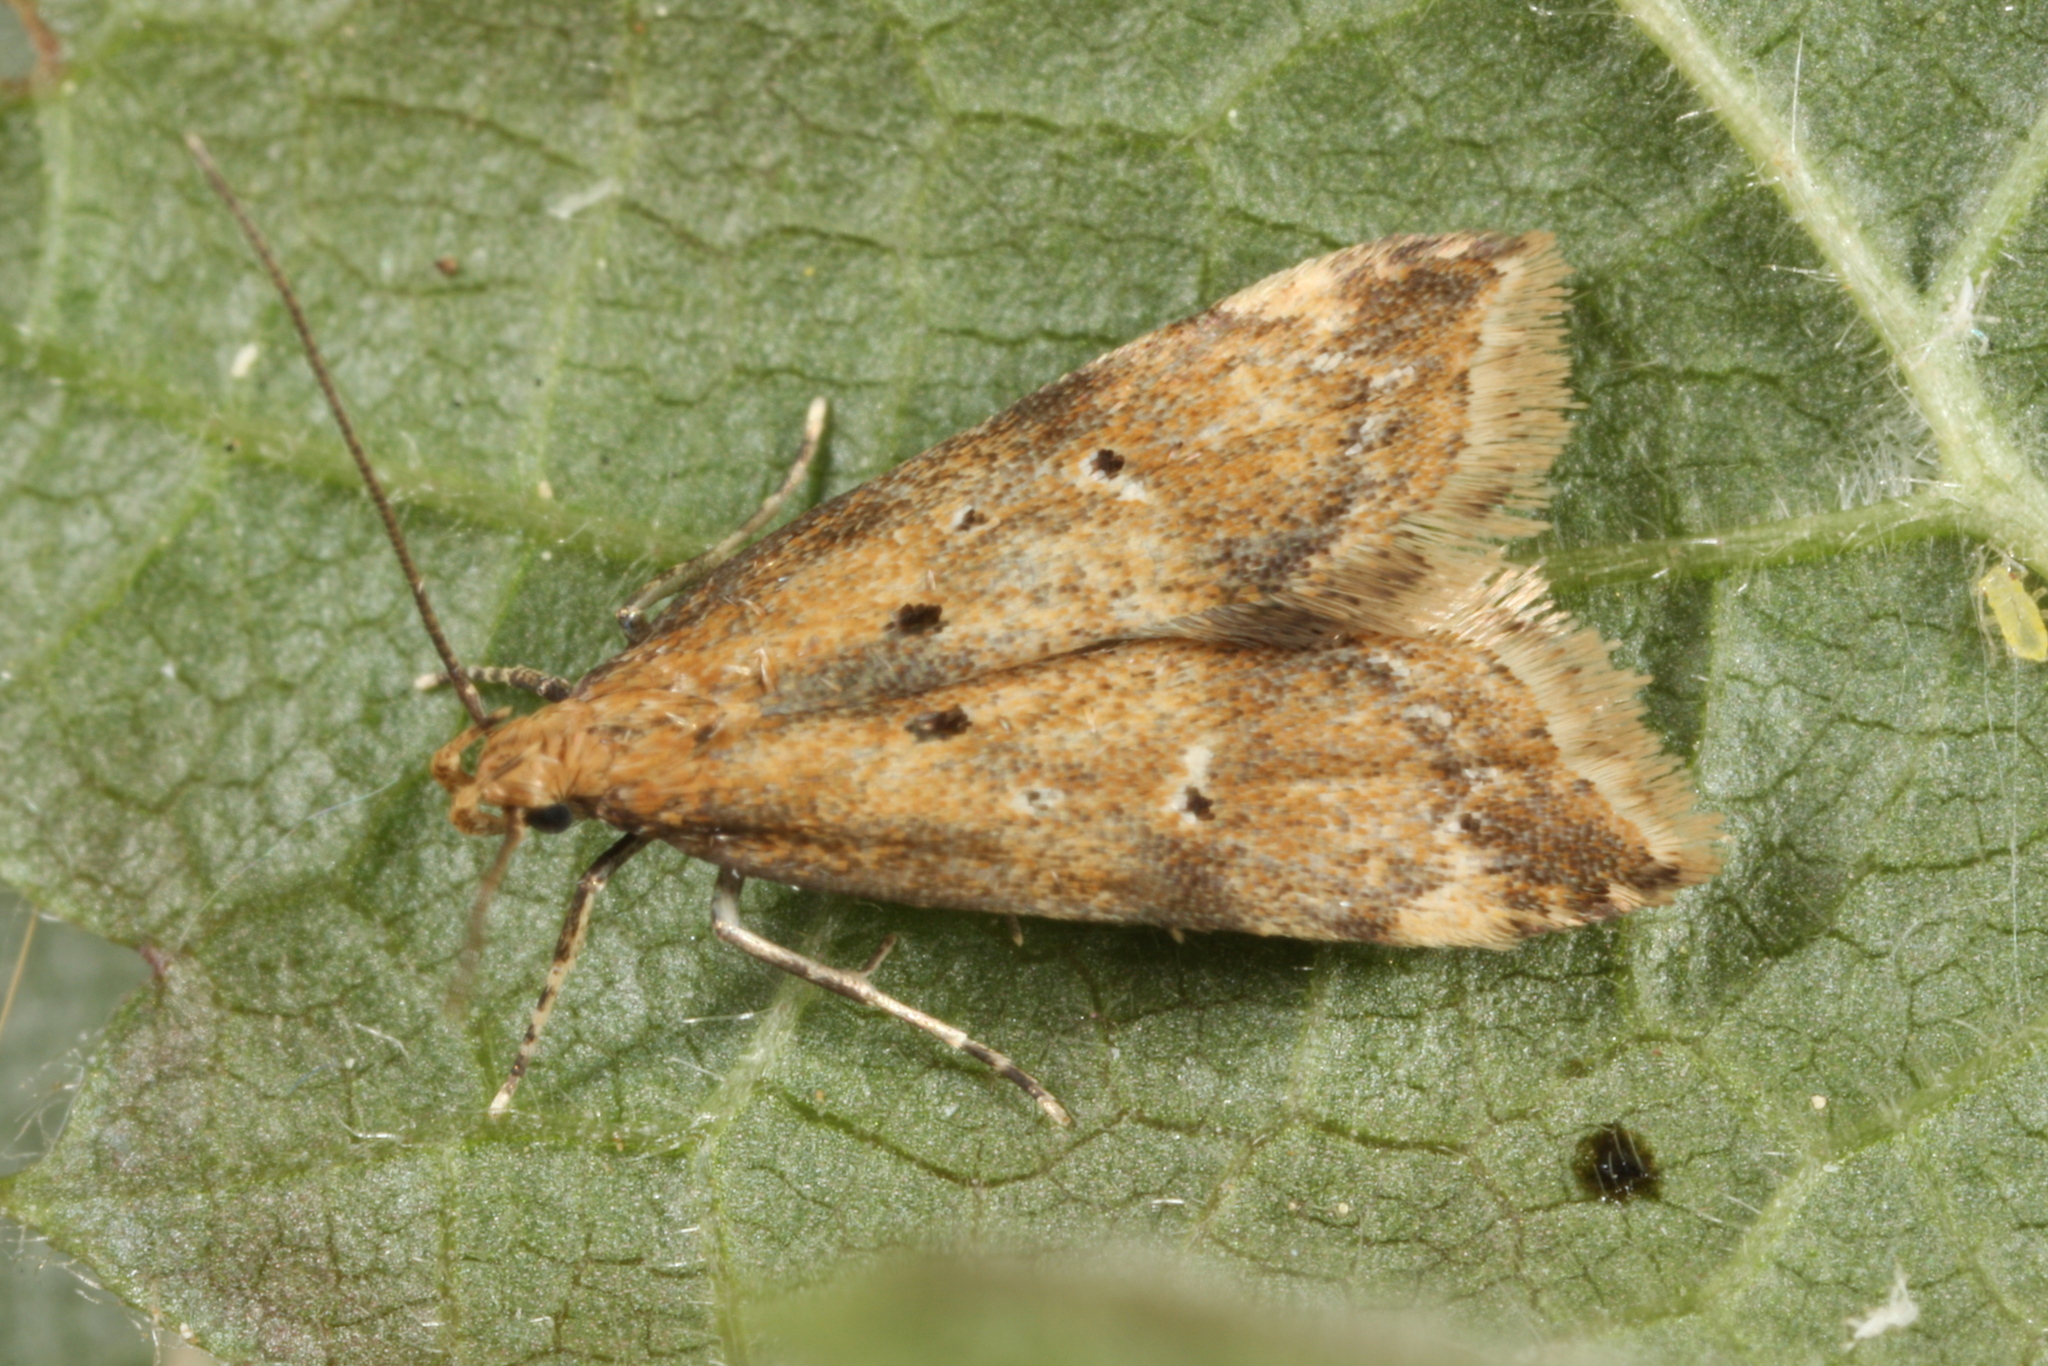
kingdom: Animalia
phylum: Arthropoda
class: Insecta
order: Lepidoptera
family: Gelechiidae
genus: Brachmia
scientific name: Brachmia blandella
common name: Gorse crest
